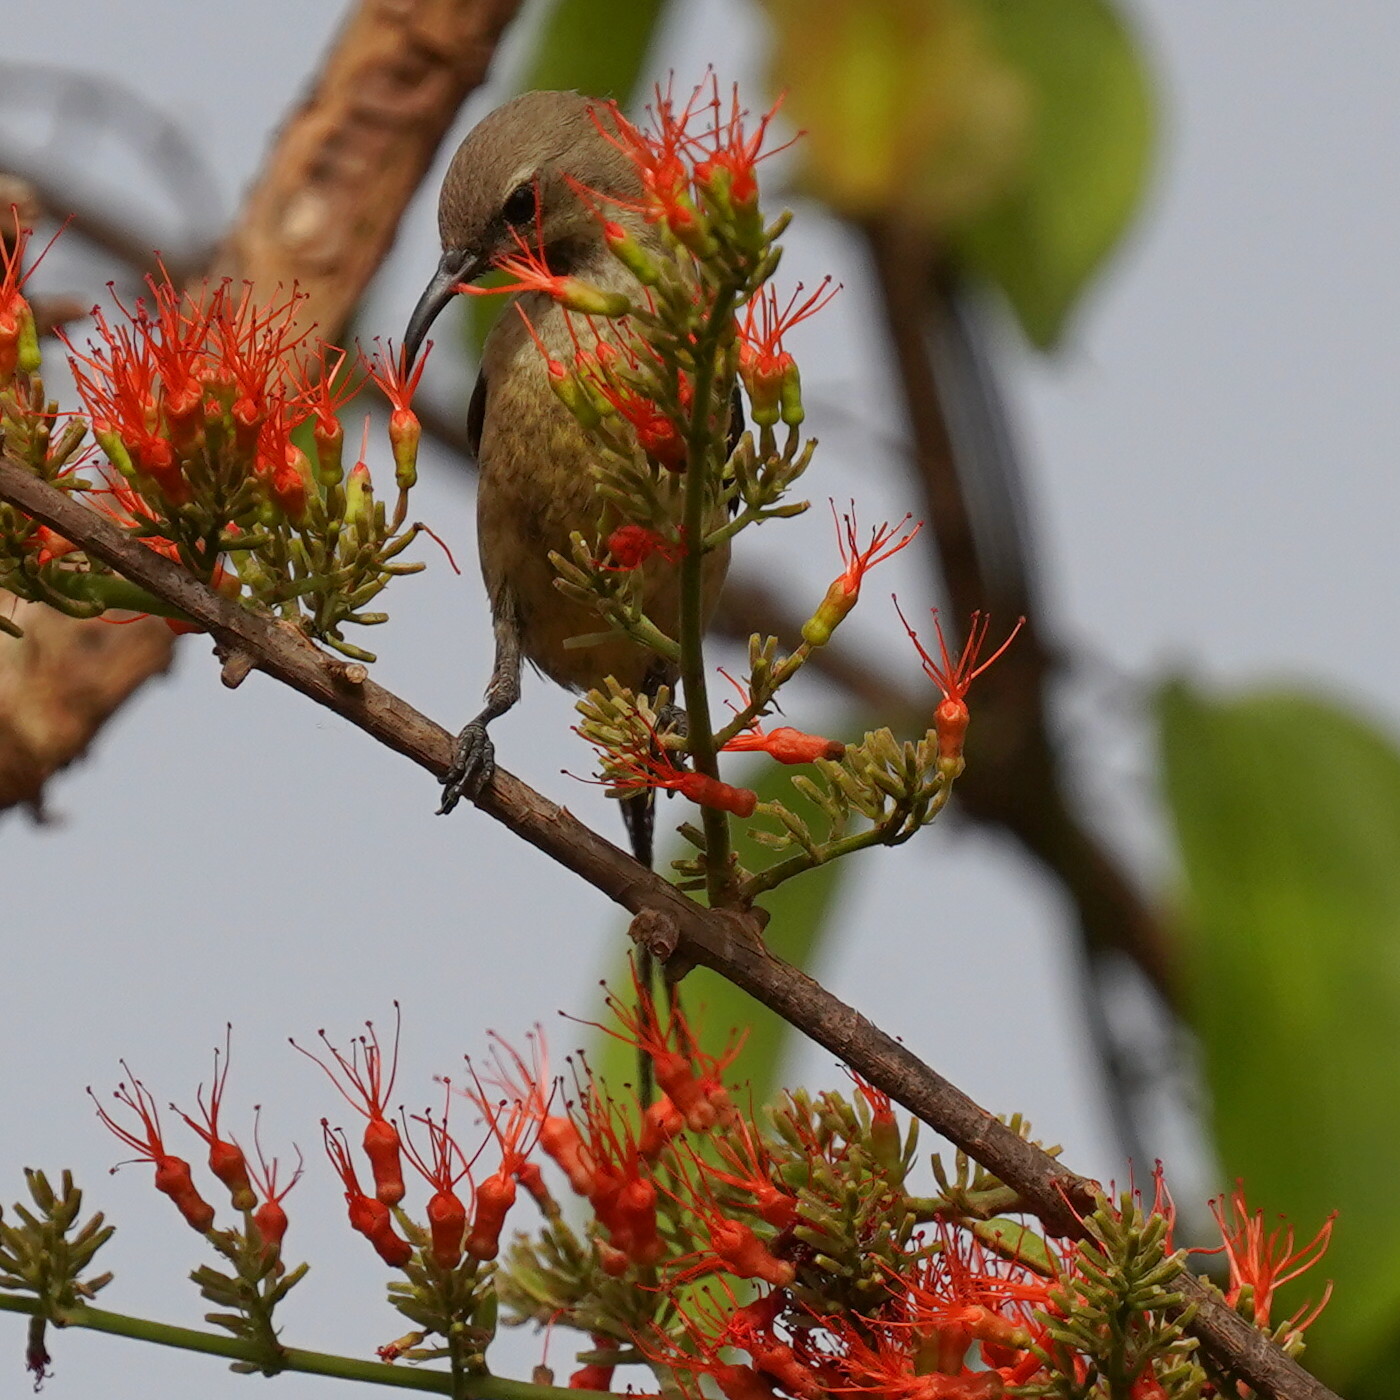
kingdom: Animalia
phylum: Chordata
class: Aves
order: Passeriformes
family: Nectariniidae
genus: Cinnyris
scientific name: Cinnyris pulchellus
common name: Beautiful sunbird
